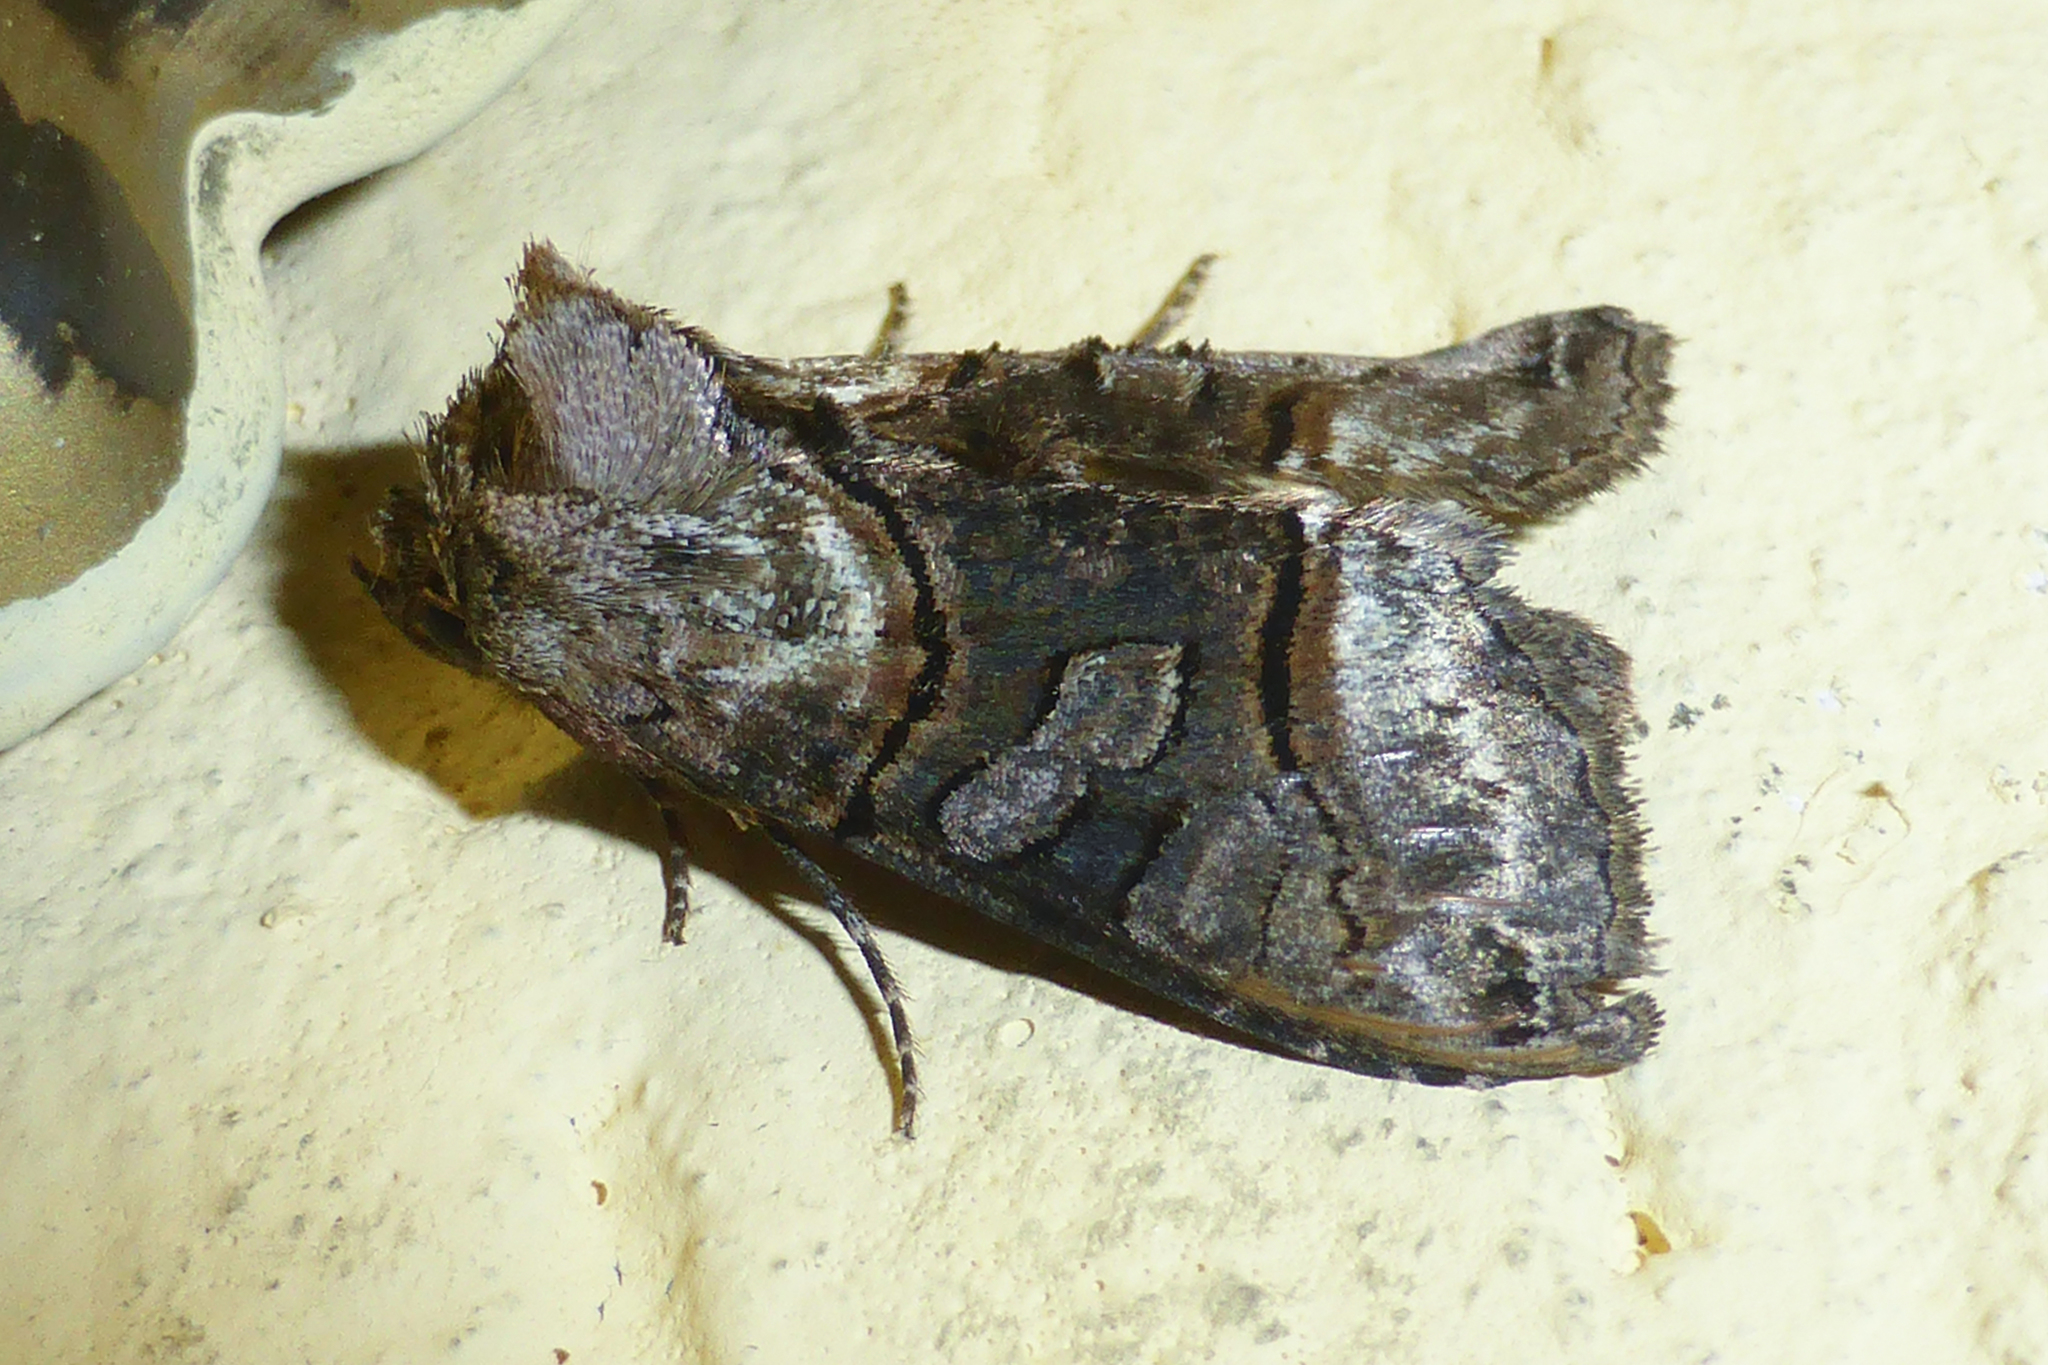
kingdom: Animalia
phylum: Arthropoda
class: Insecta
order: Lepidoptera
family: Noctuidae
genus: Abrostola
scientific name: Abrostola tripartita
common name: Spectacle
